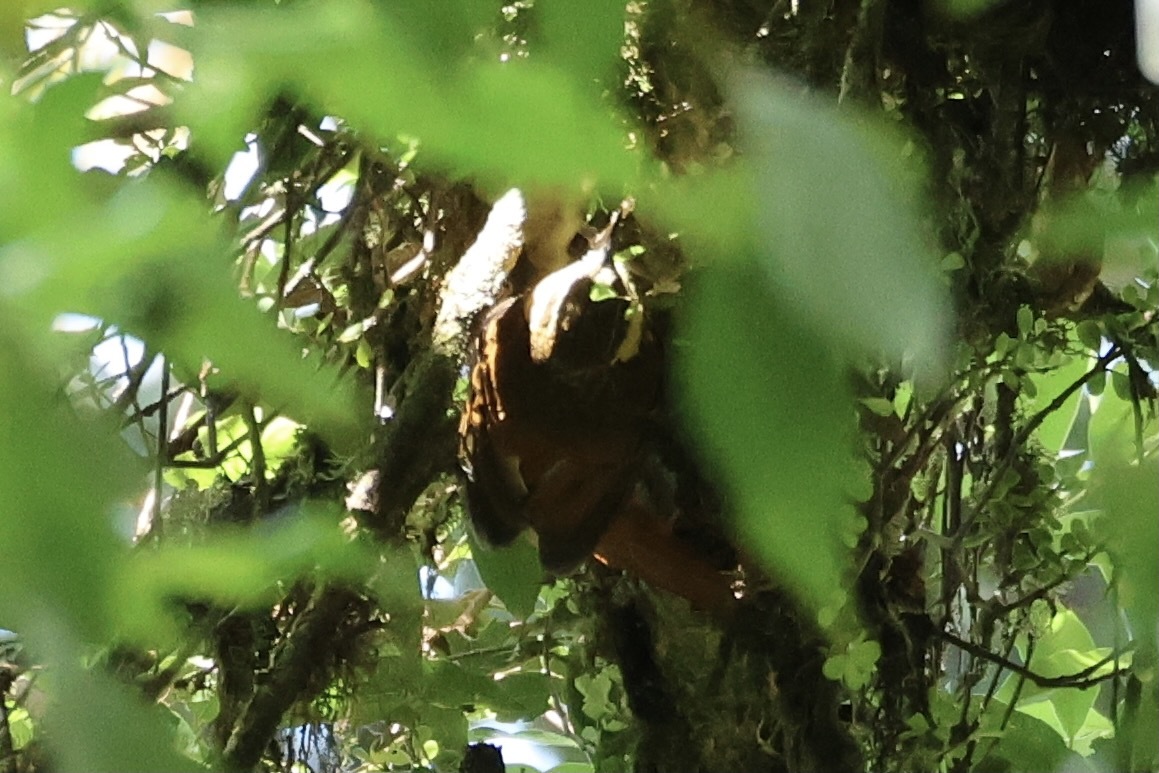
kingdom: Animalia
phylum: Chordata
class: Aves
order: Passeriformes
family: Furnariidae
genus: Pseudocolaptes
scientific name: Pseudocolaptes lawrencii
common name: Buffy tuftedcheek
